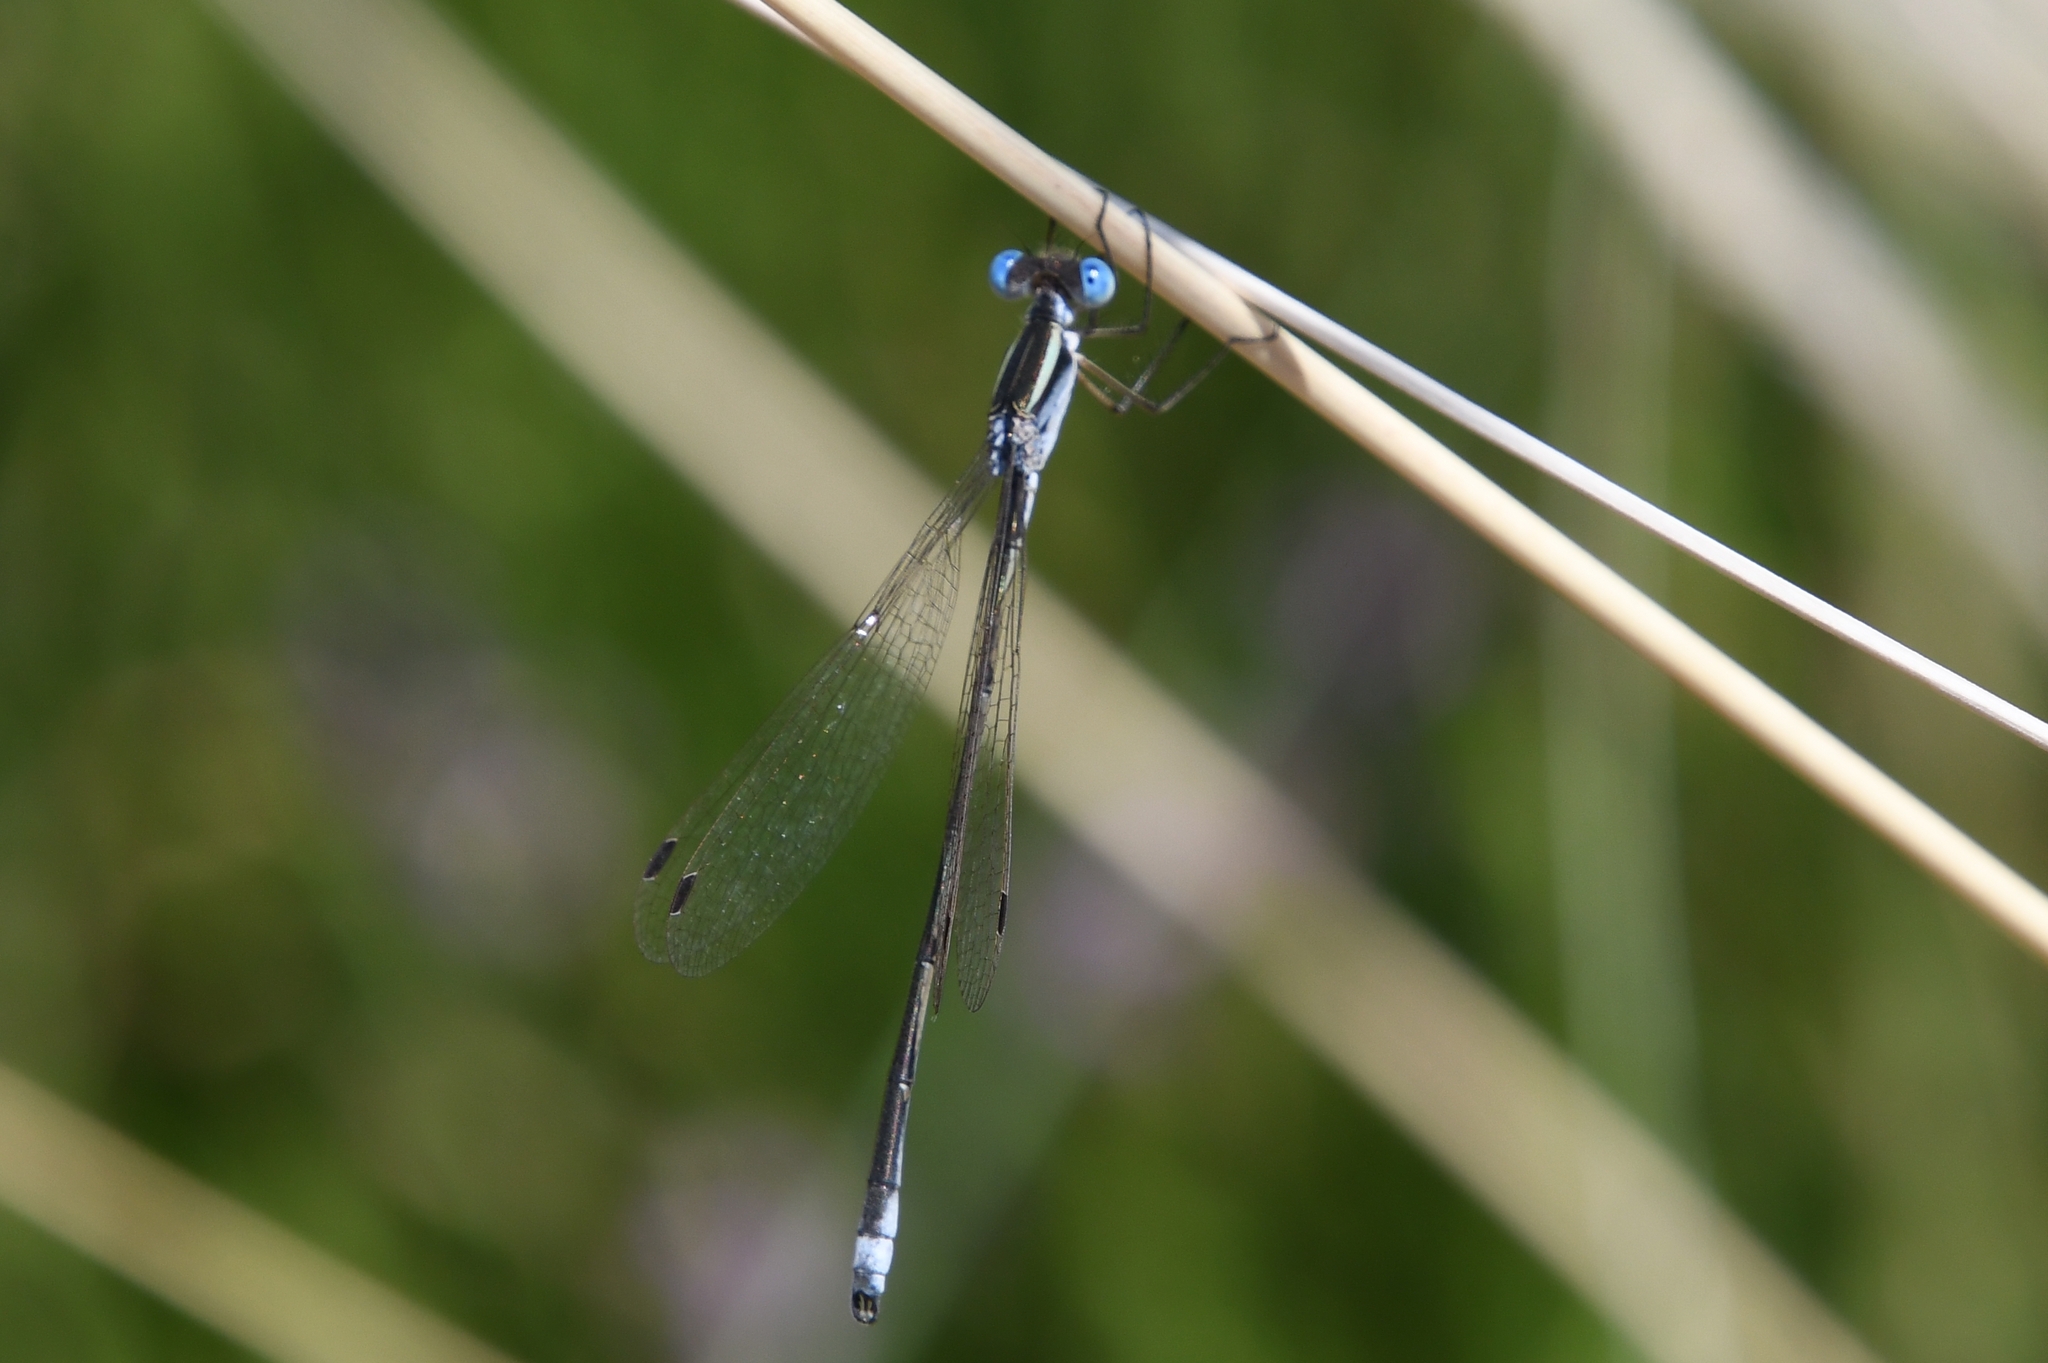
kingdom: Animalia
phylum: Arthropoda
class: Insecta
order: Odonata
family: Lestidae
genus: Lestes
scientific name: Lestes alacer
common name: Plateau spreadwing
